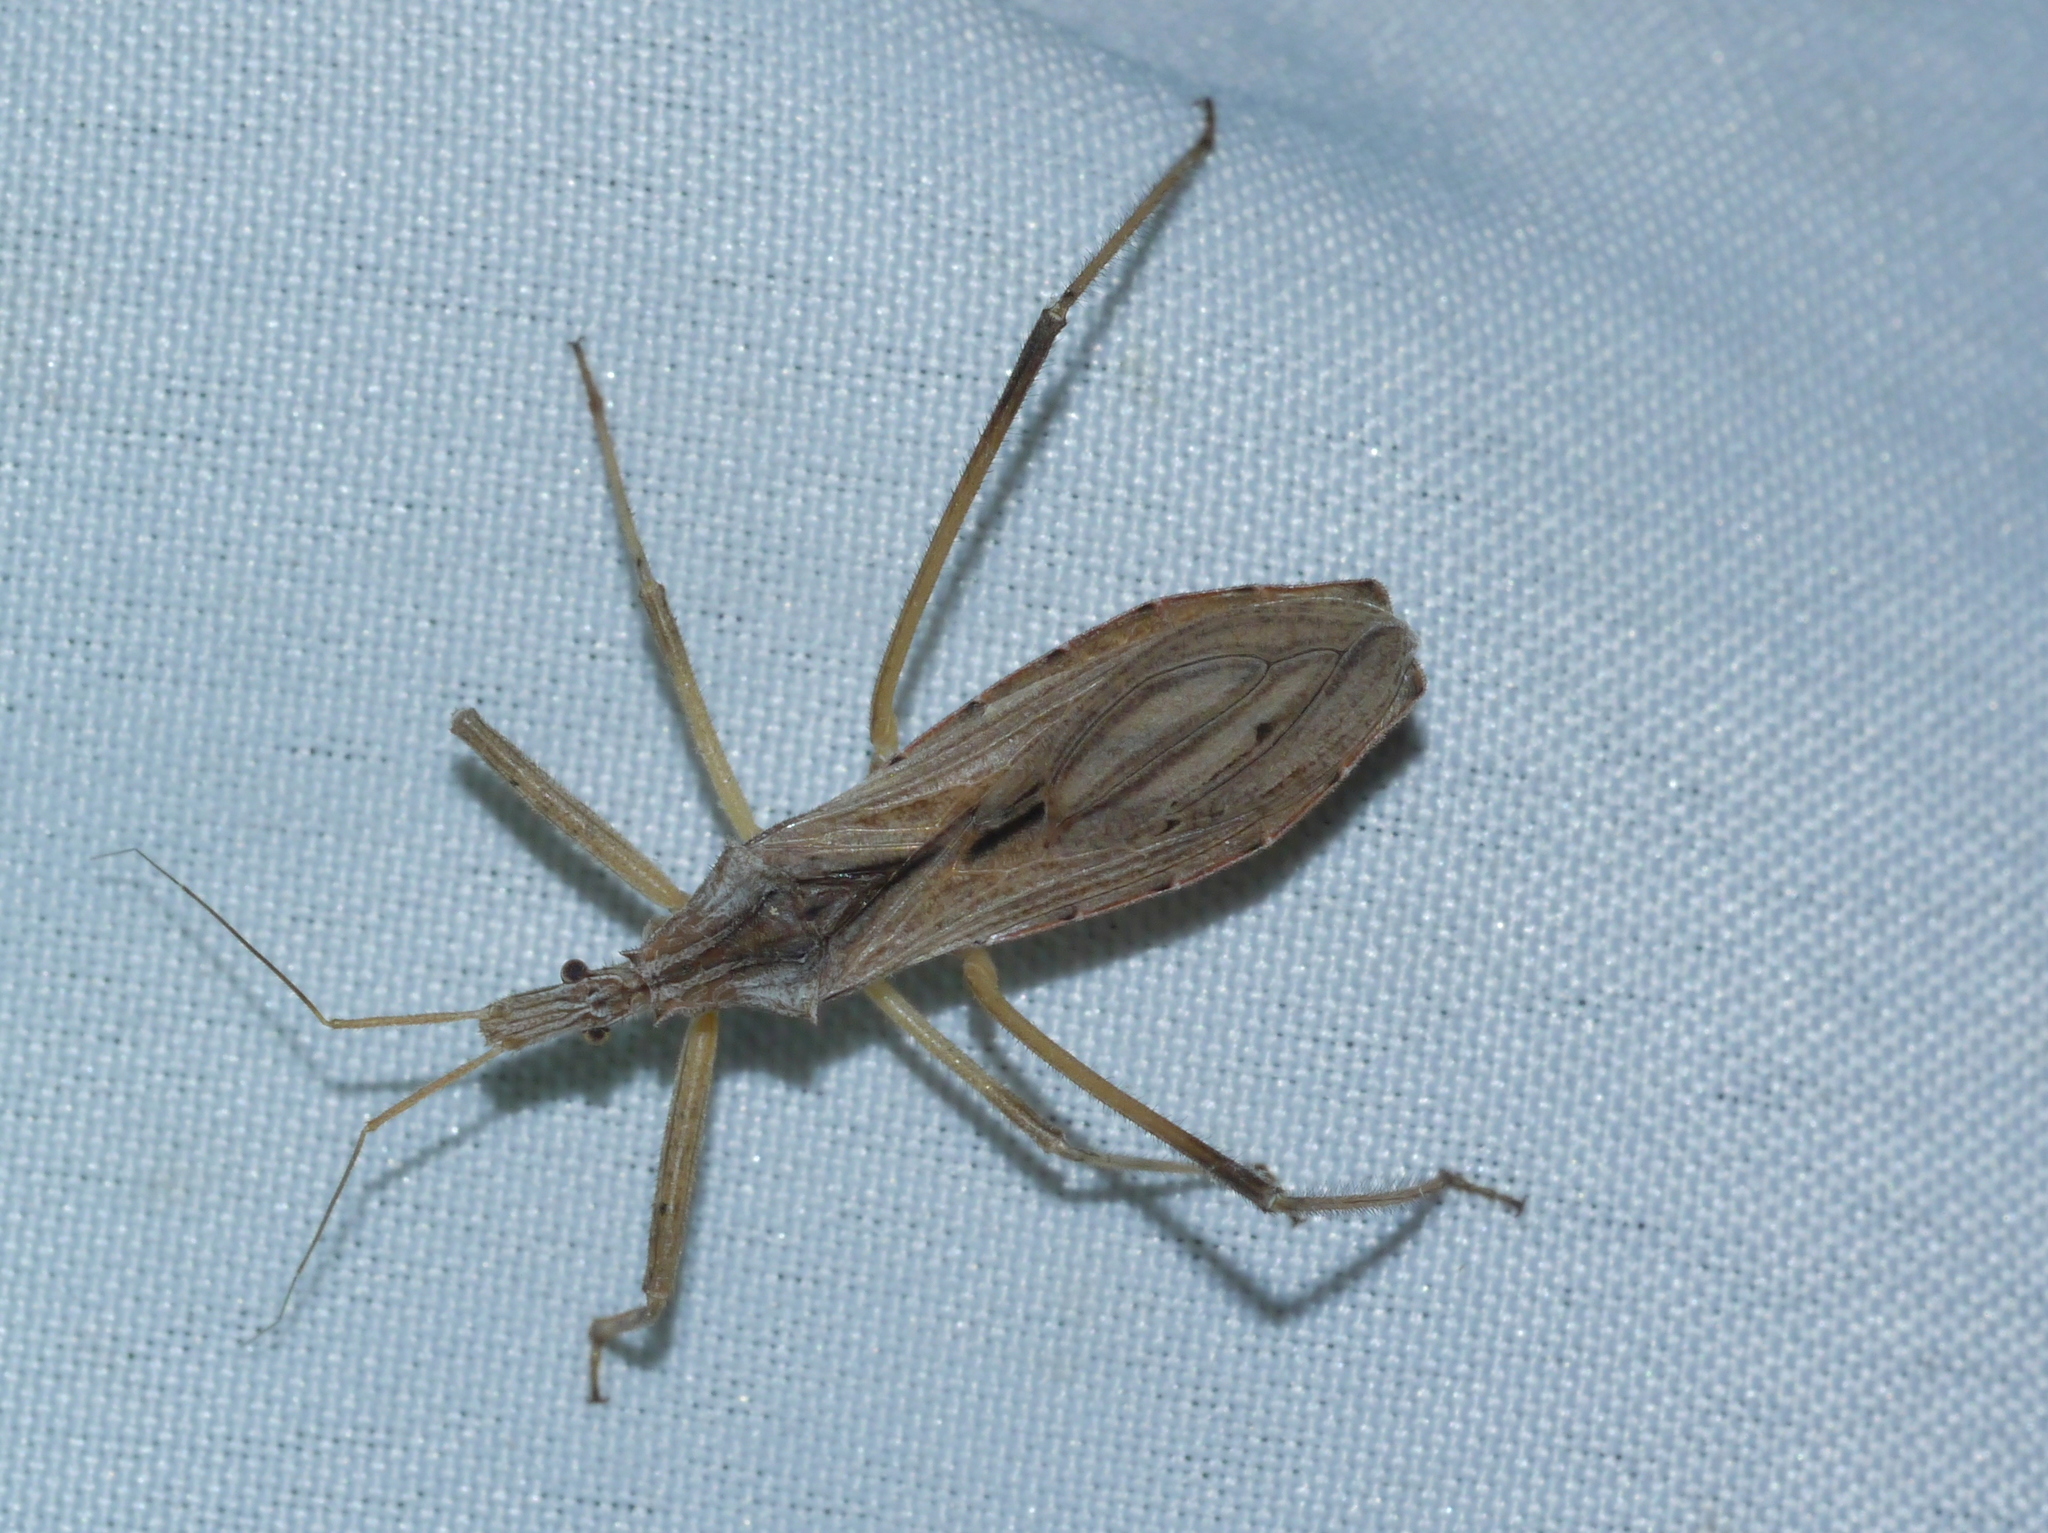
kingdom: Animalia
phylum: Arthropoda
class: Insecta
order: Hemiptera
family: Reduviidae
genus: Stenopoda
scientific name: Stenopoda spinulosa
